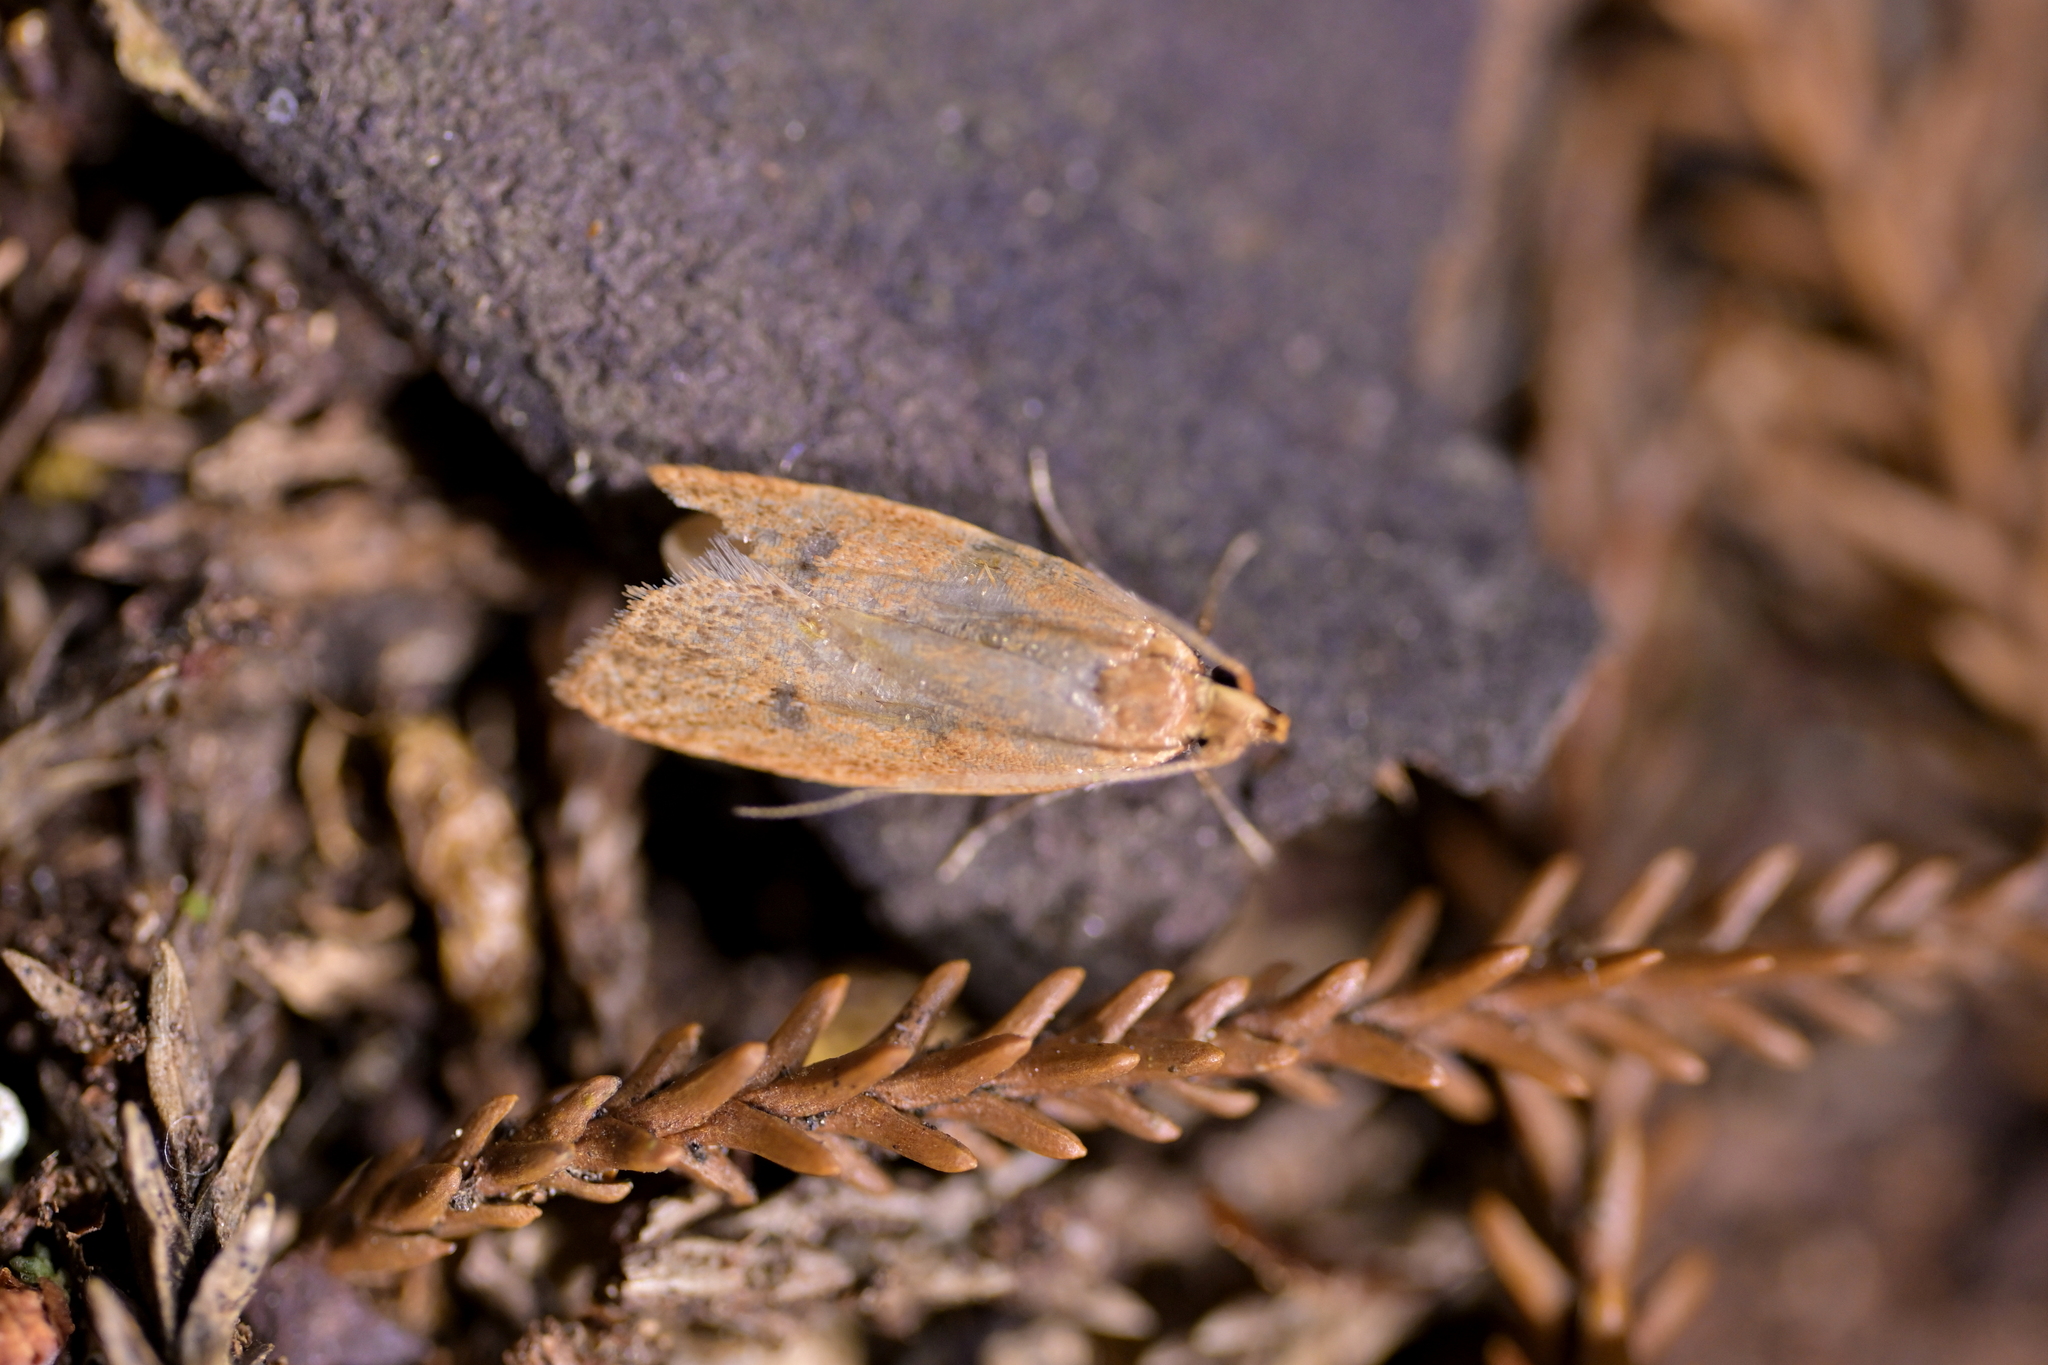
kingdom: Animalia
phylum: Arthropoda
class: Insecta
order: Lepidoptera
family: Oecophoridae
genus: Gymnobathra
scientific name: Gymnobathra sarcoxantha
